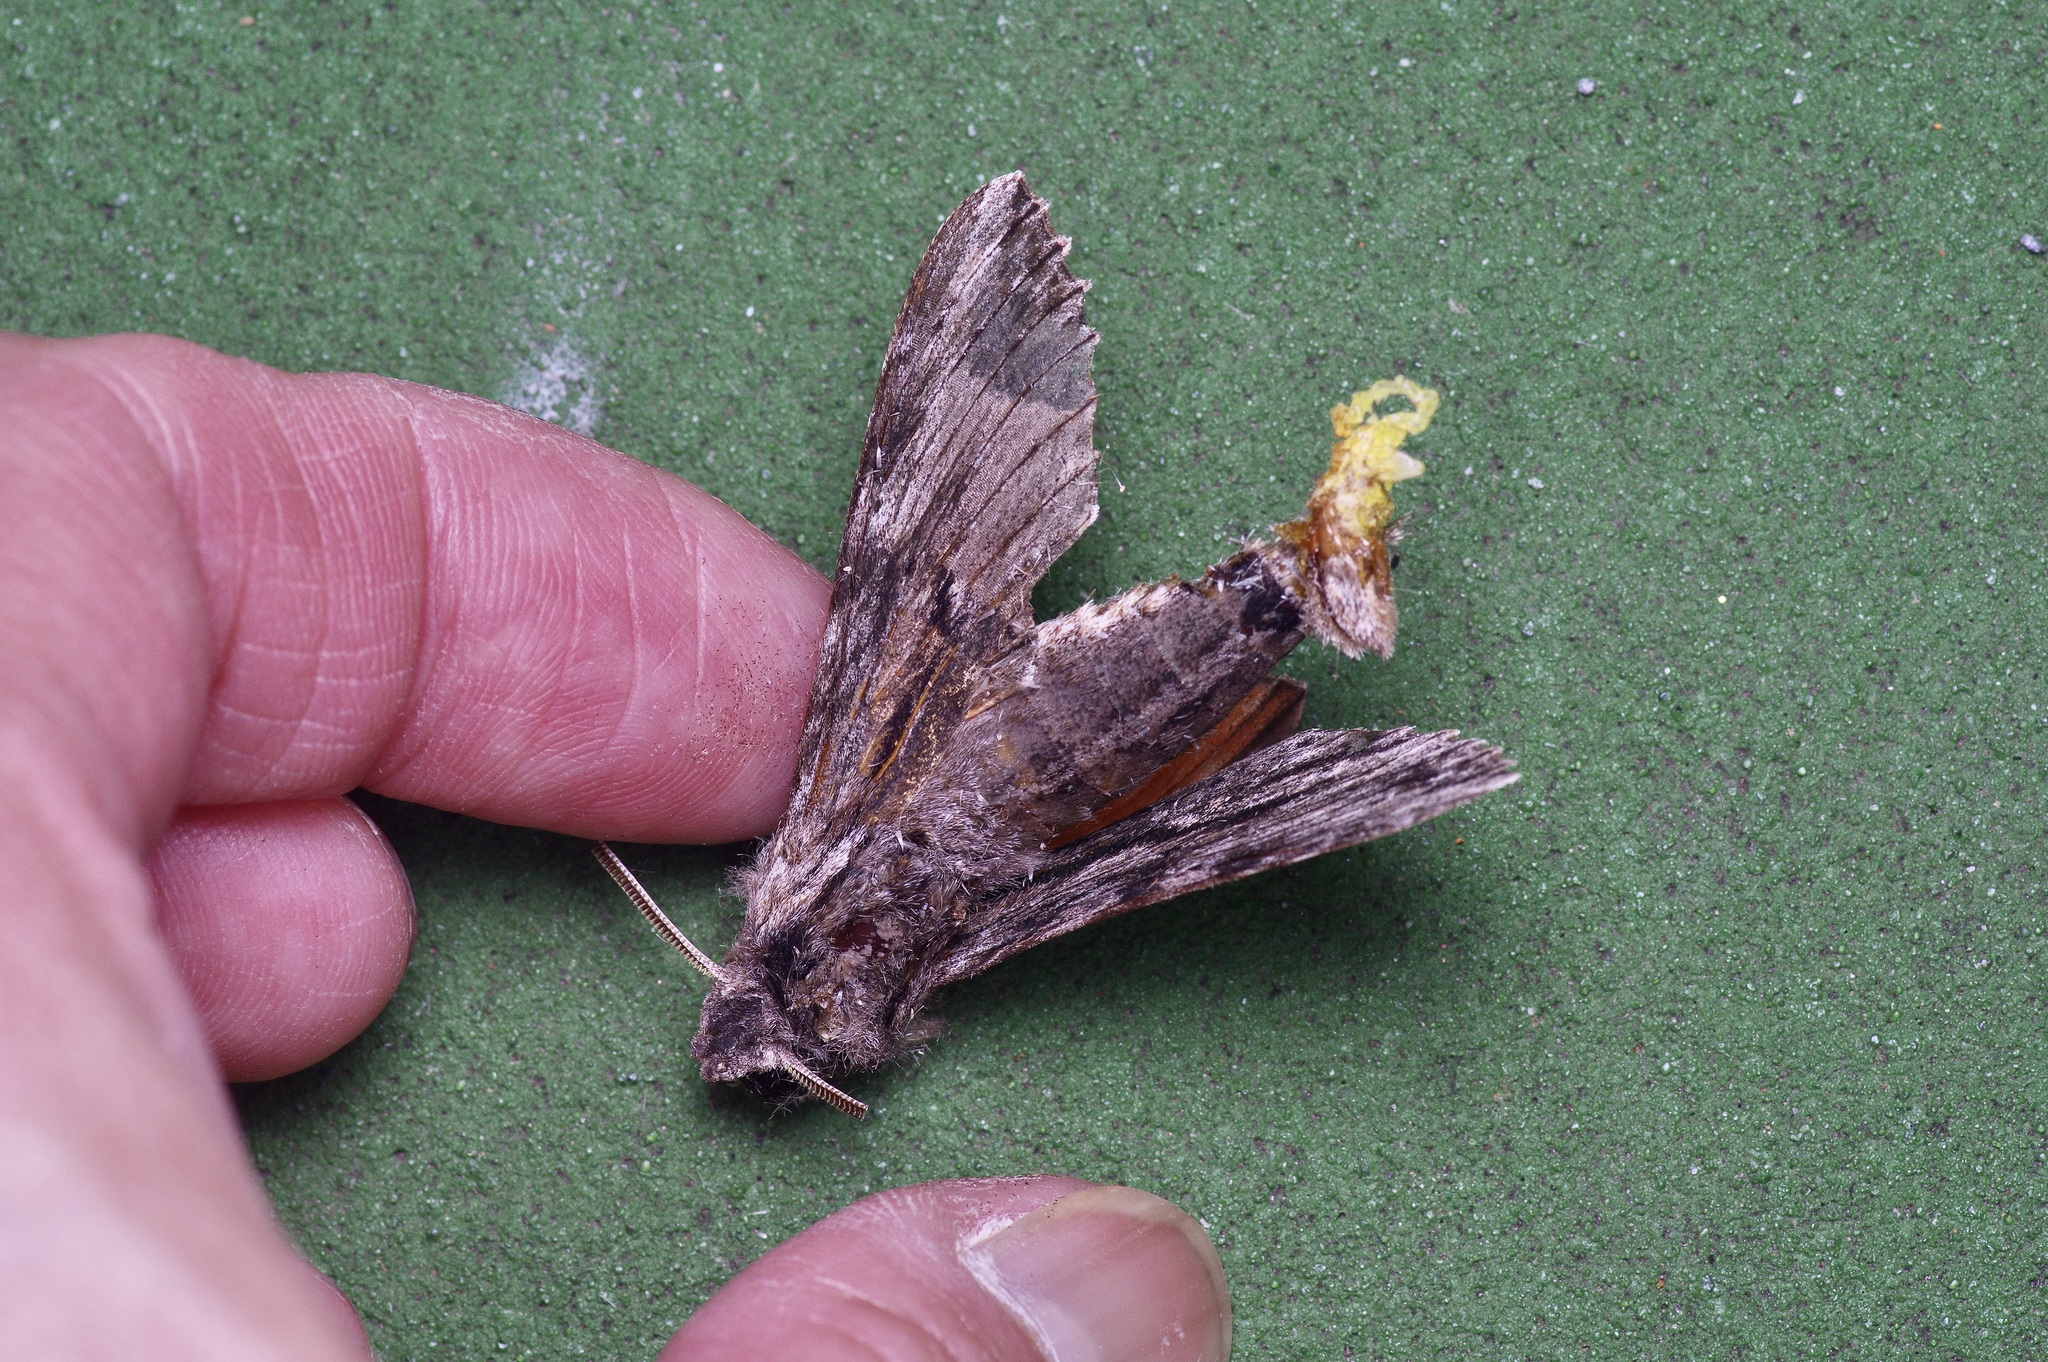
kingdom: Animalia
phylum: Arthropoda
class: Insecta
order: Lepidoptera
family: Sphingidae
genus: Erinnyis
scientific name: Erinnyis obscura
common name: Obscure sphinx
